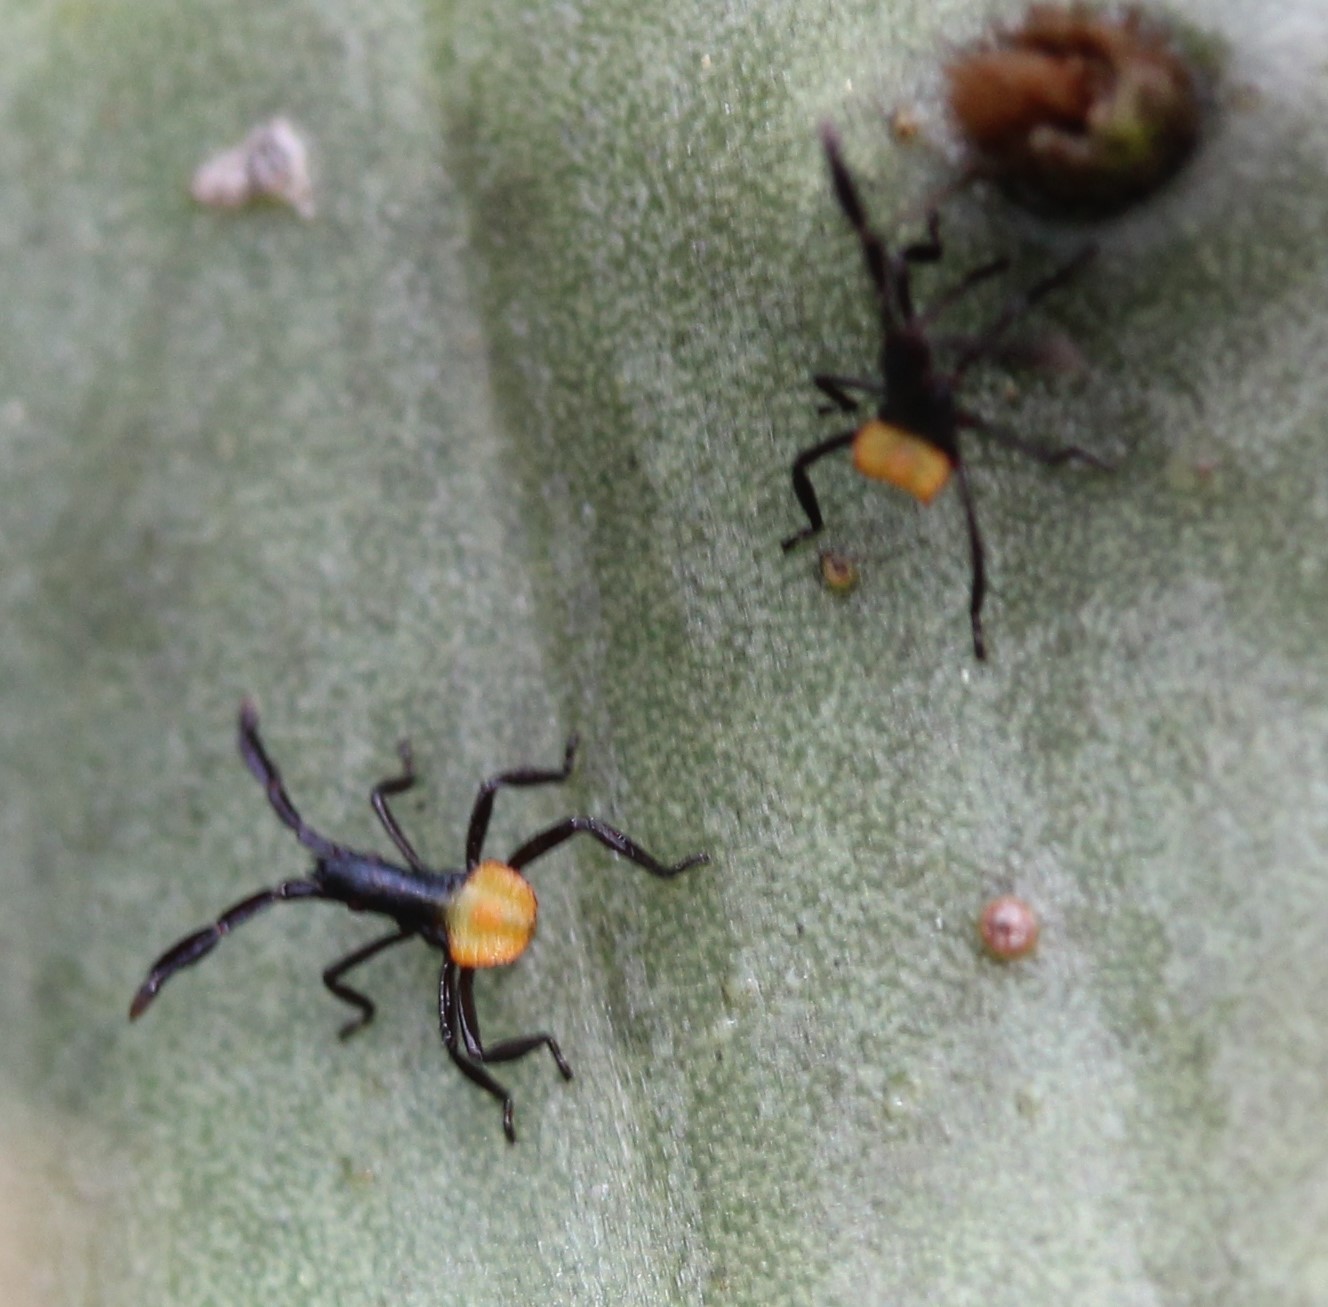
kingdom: Animalia
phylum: Arthropoda
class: Insecta
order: Hemiptera
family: Coreidae
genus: Chelinidea
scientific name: Chelinidea vittiger
